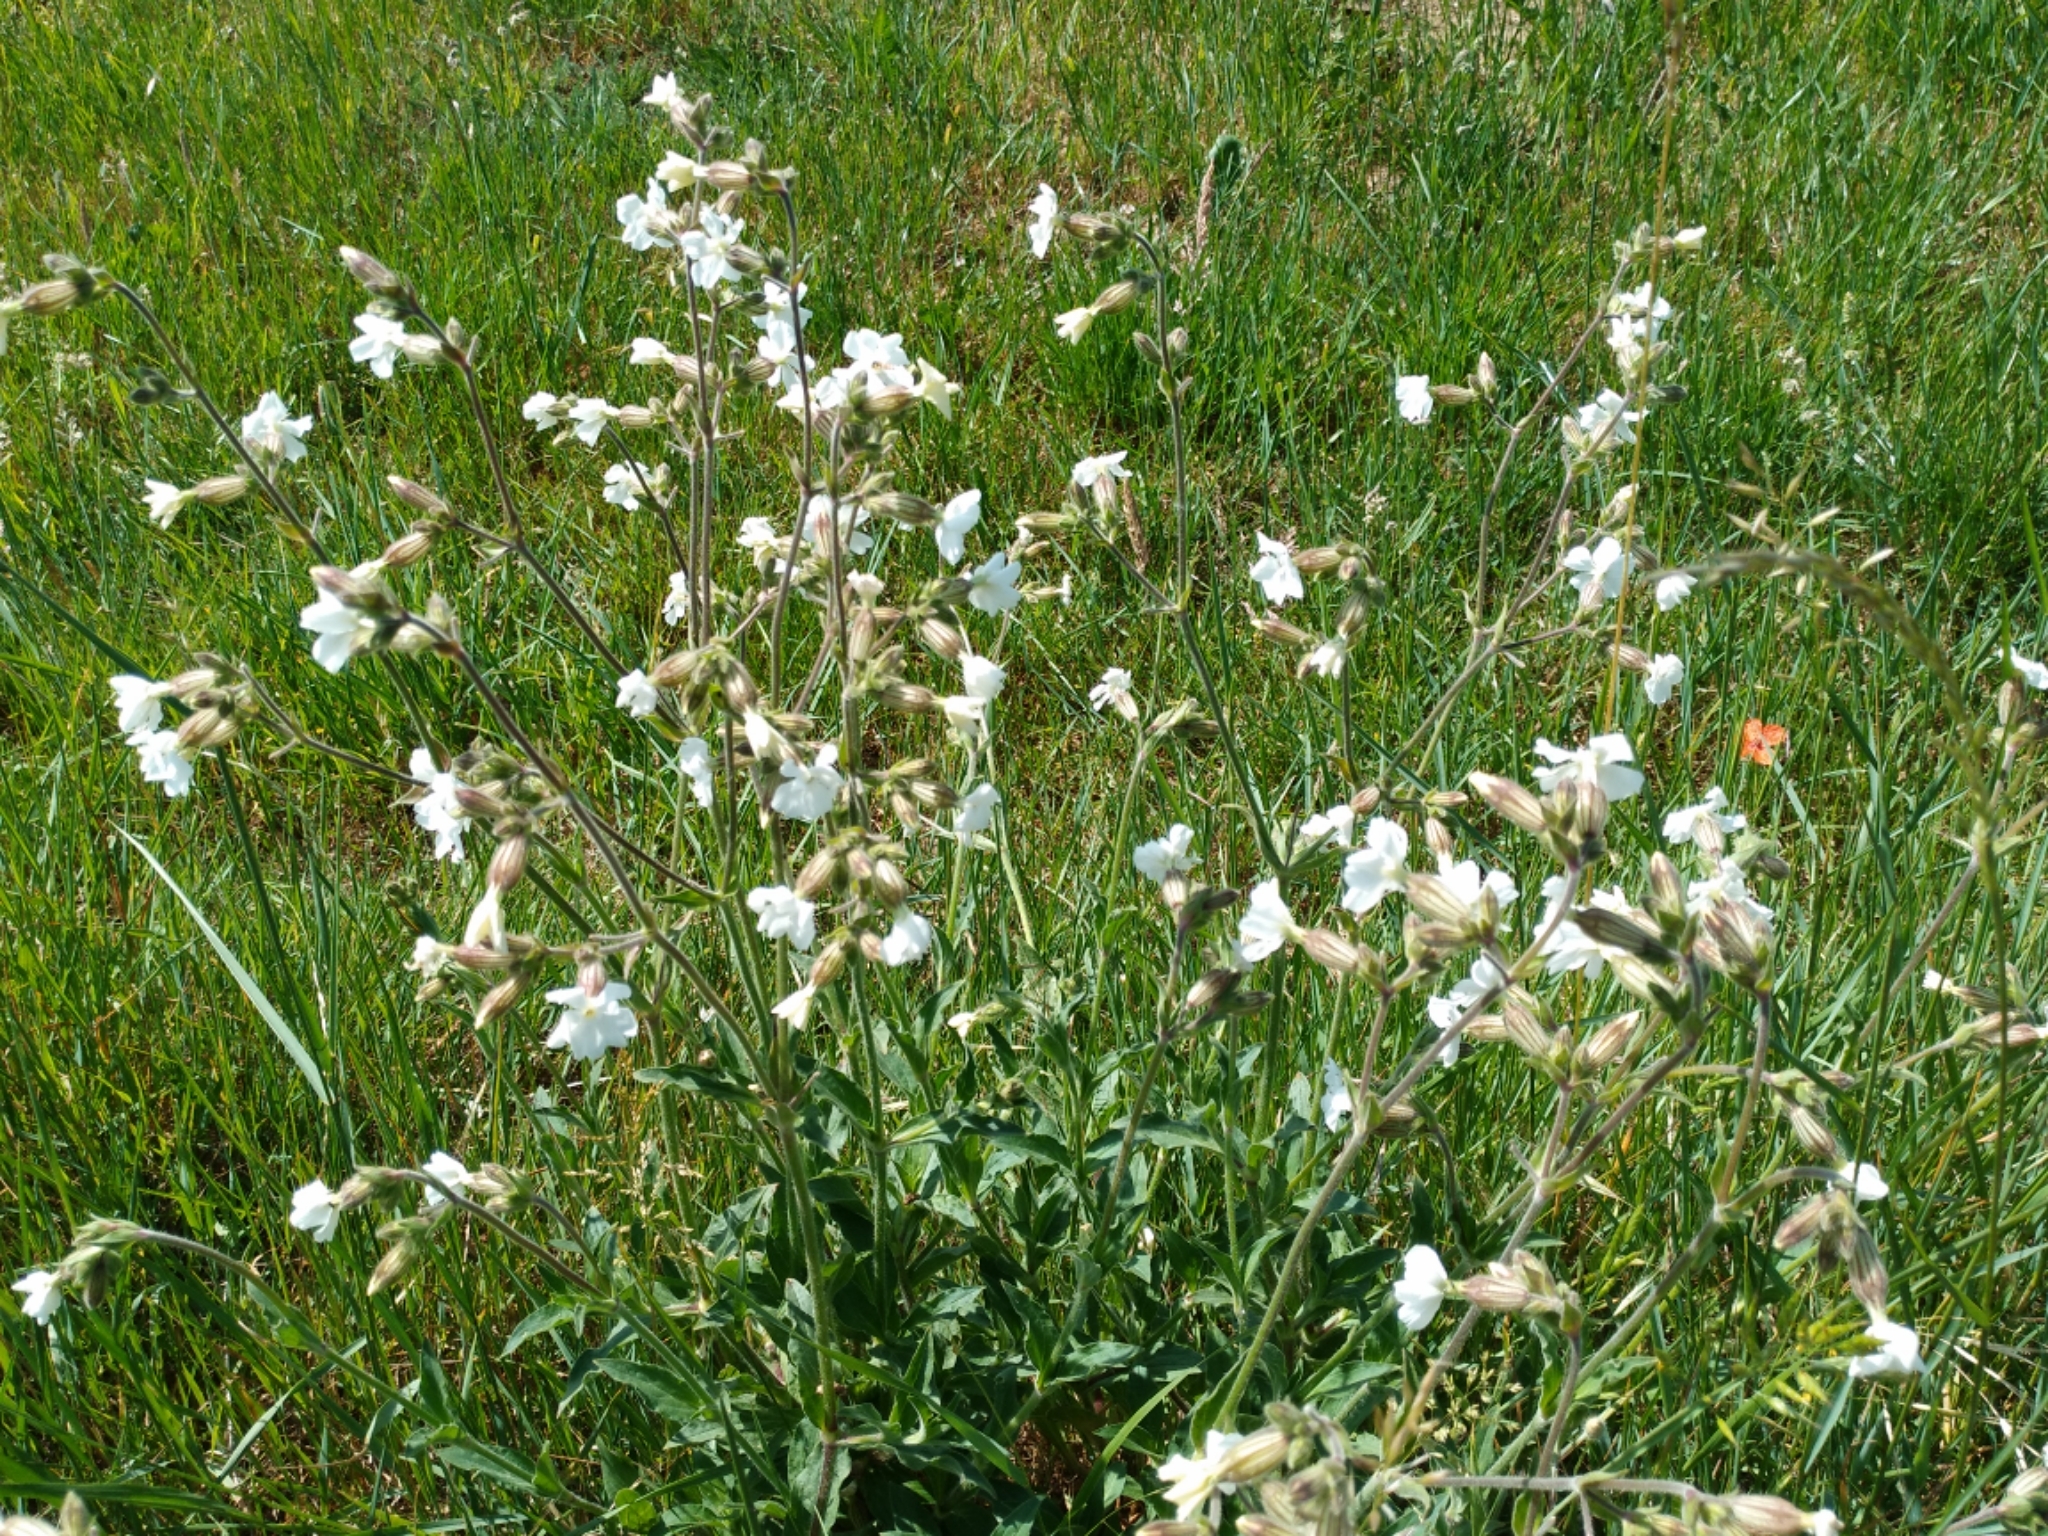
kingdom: Plantae
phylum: Tracheophyta
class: Magnoliopsida
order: Caryophyllales
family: Caryophyllaceae
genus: Silene
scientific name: Silene latifolia
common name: White campion
